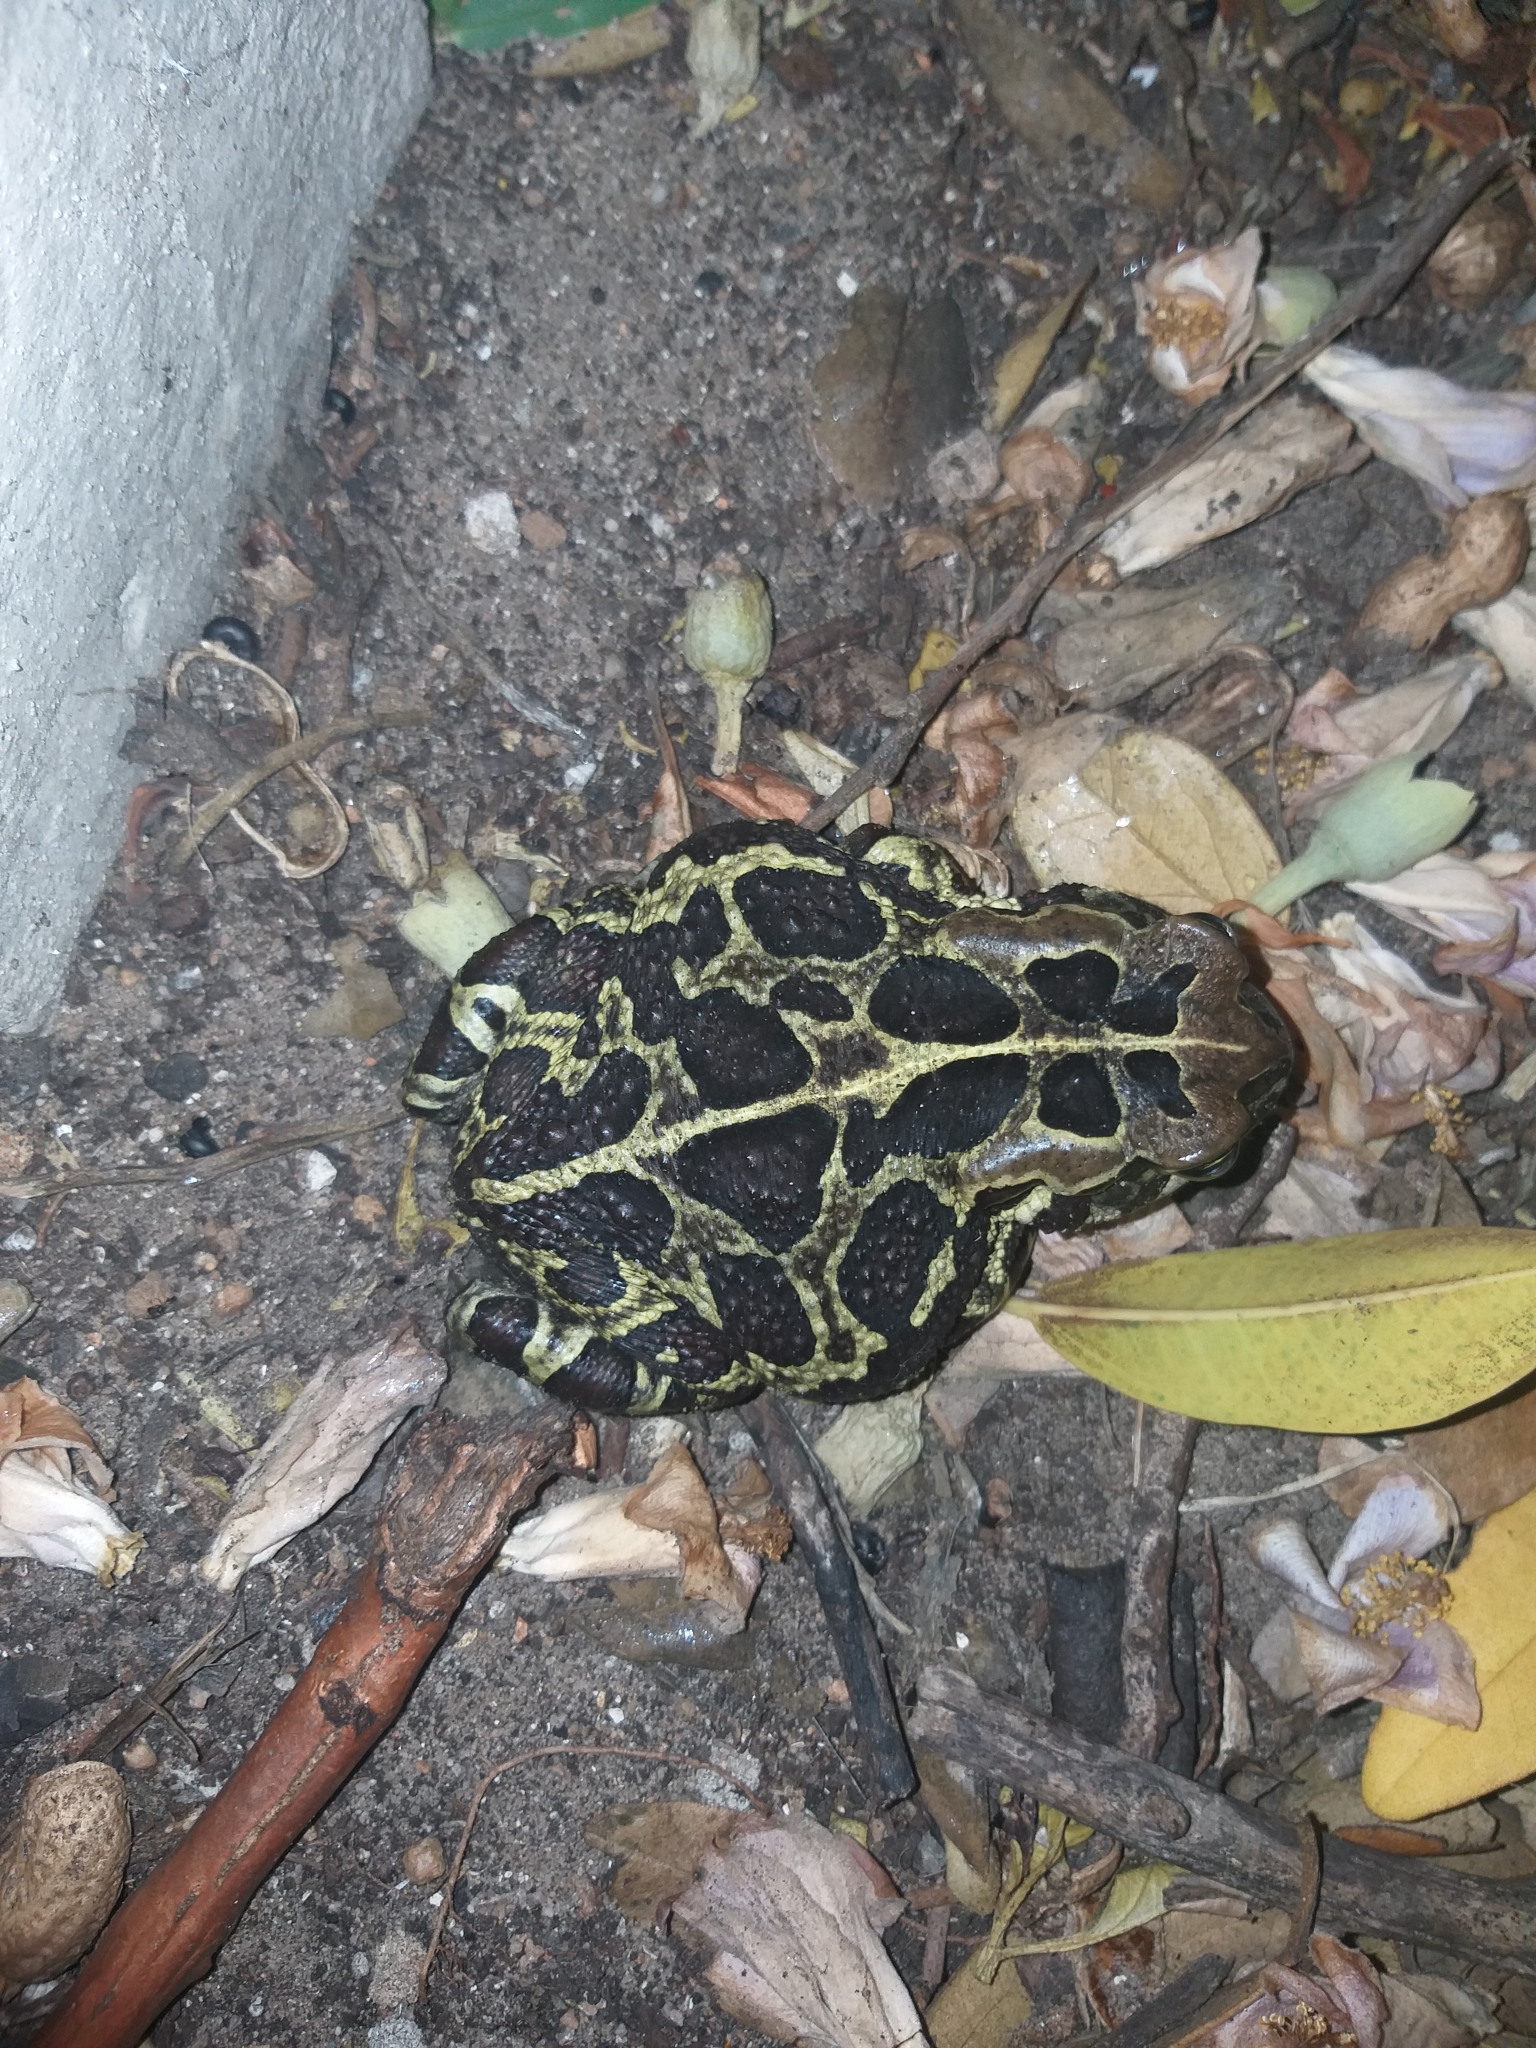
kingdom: Animalia
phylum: Chordata
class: Amphibia
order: Anura
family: Bufonidae
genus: Sclerophrys
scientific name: Sclerophrys pantherina
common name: Panther toad
